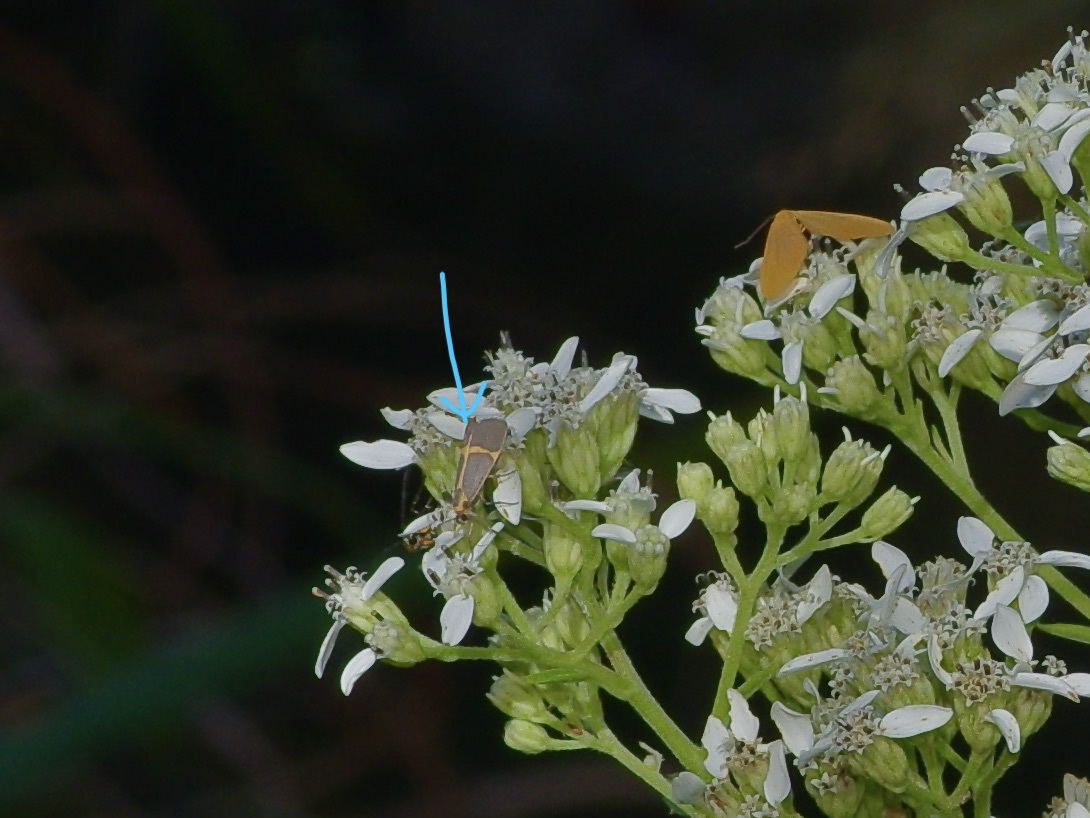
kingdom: Animalia
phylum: Arthropoda
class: Insecta
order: Lepidoptera
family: Erebidae
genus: Cisthene
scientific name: Cisthene tenuifascia
